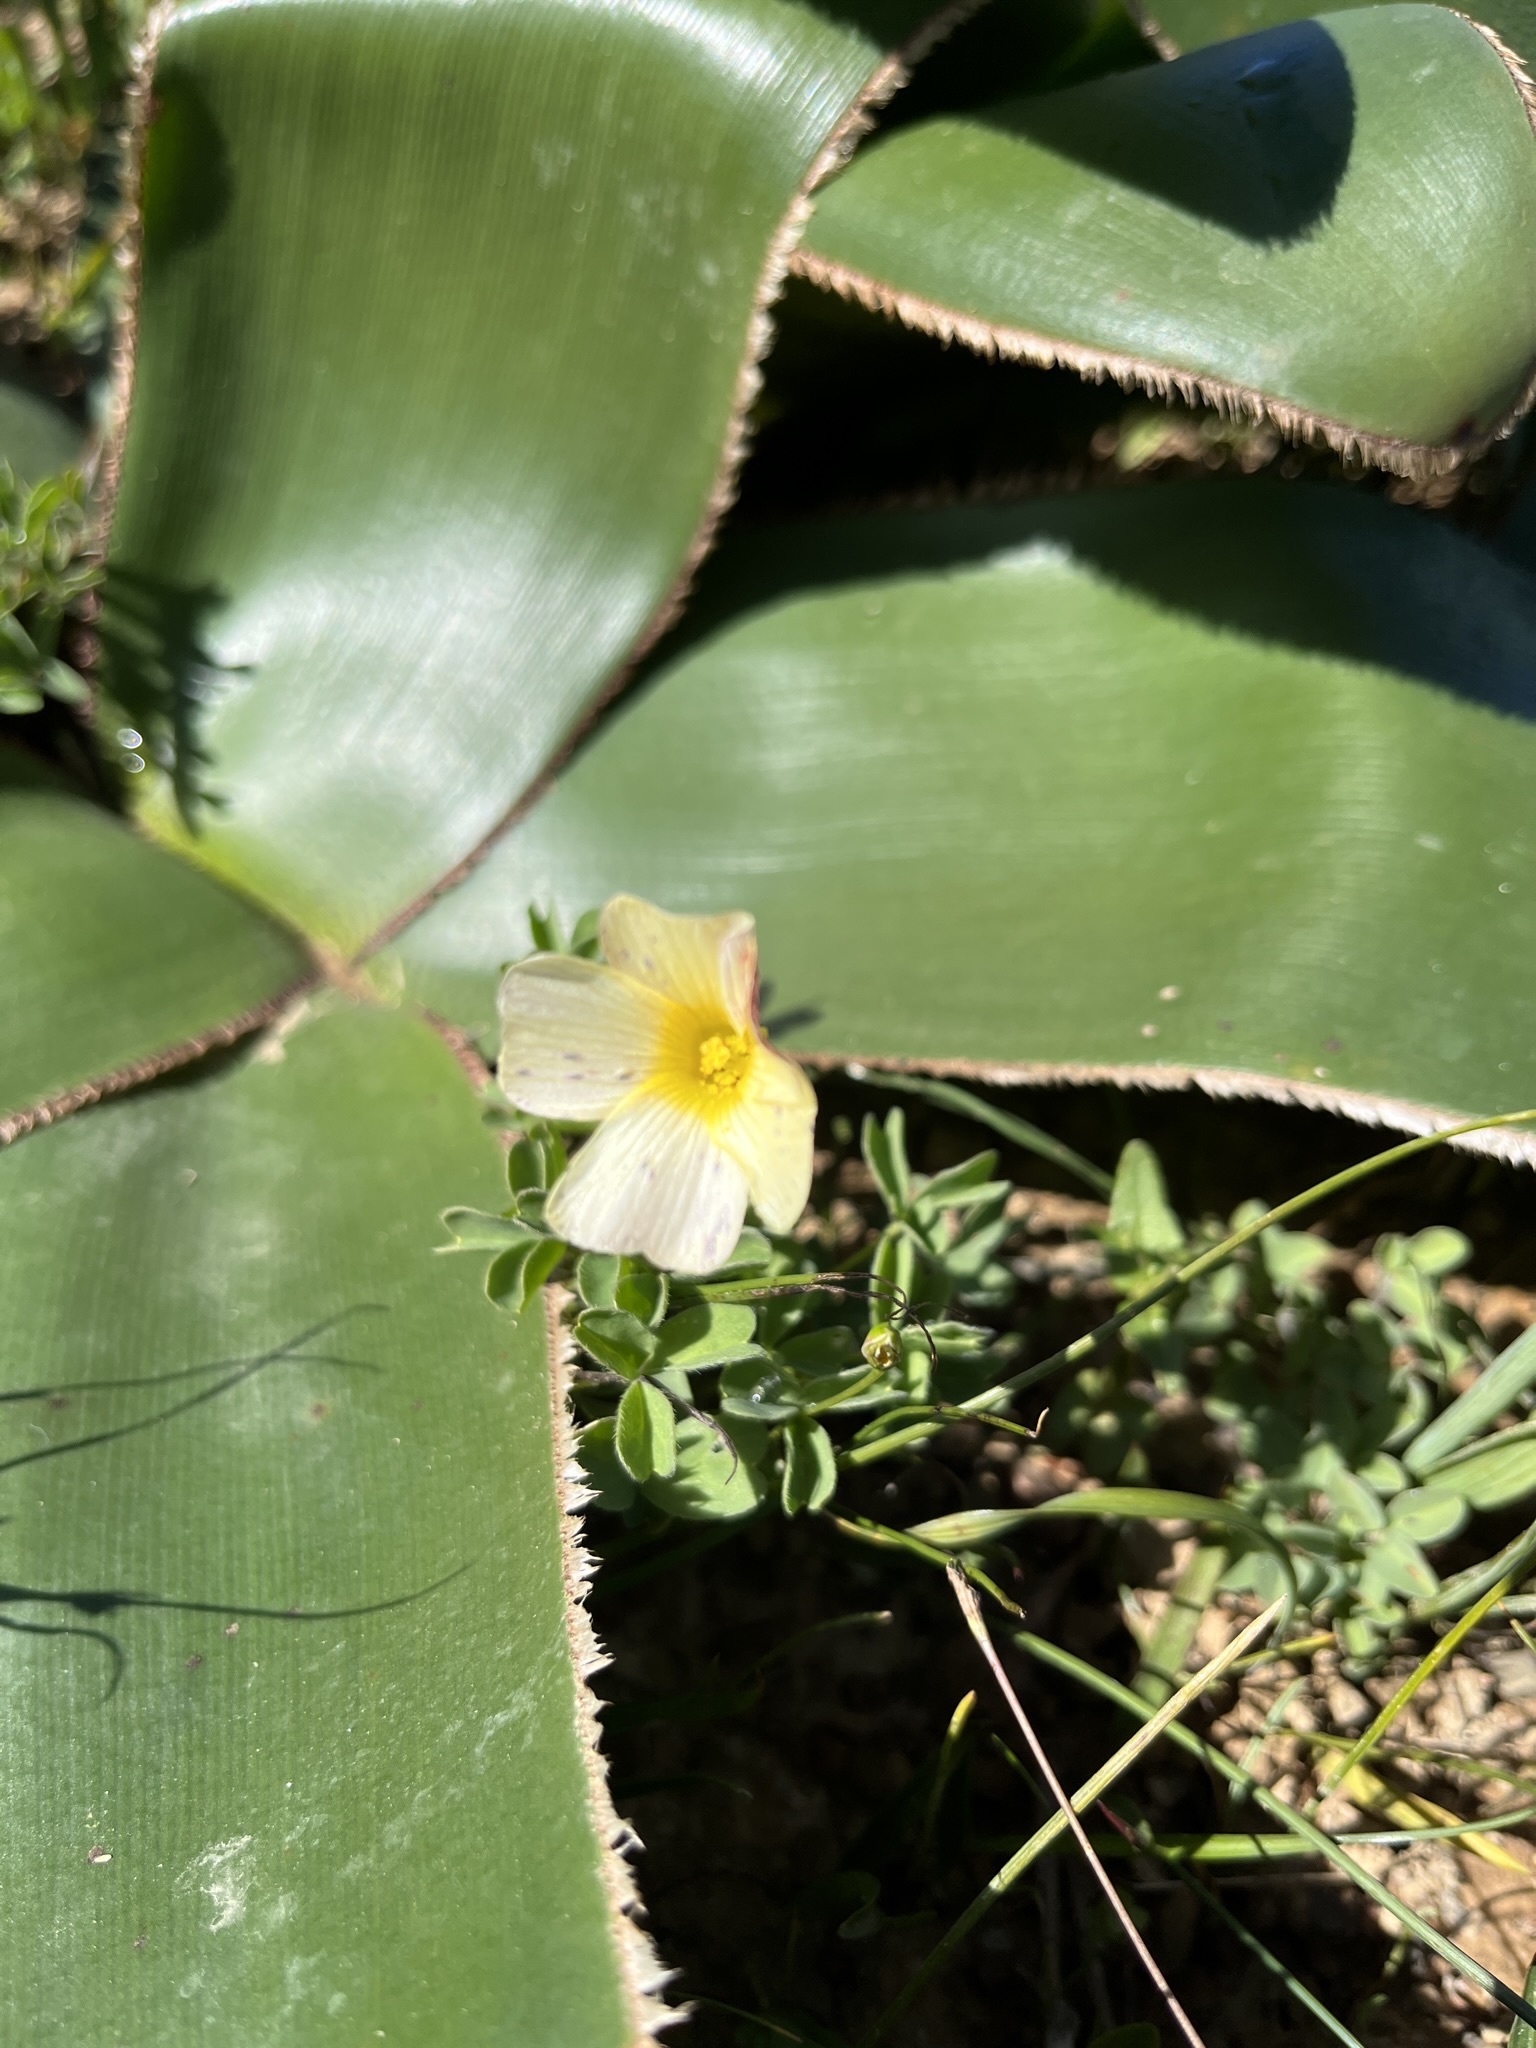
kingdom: Plantae
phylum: Tracheophyta
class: Magnoliopsida
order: Oxalidales
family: Oxalidaceae
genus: Oxalis
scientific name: Oxalis obtusa
